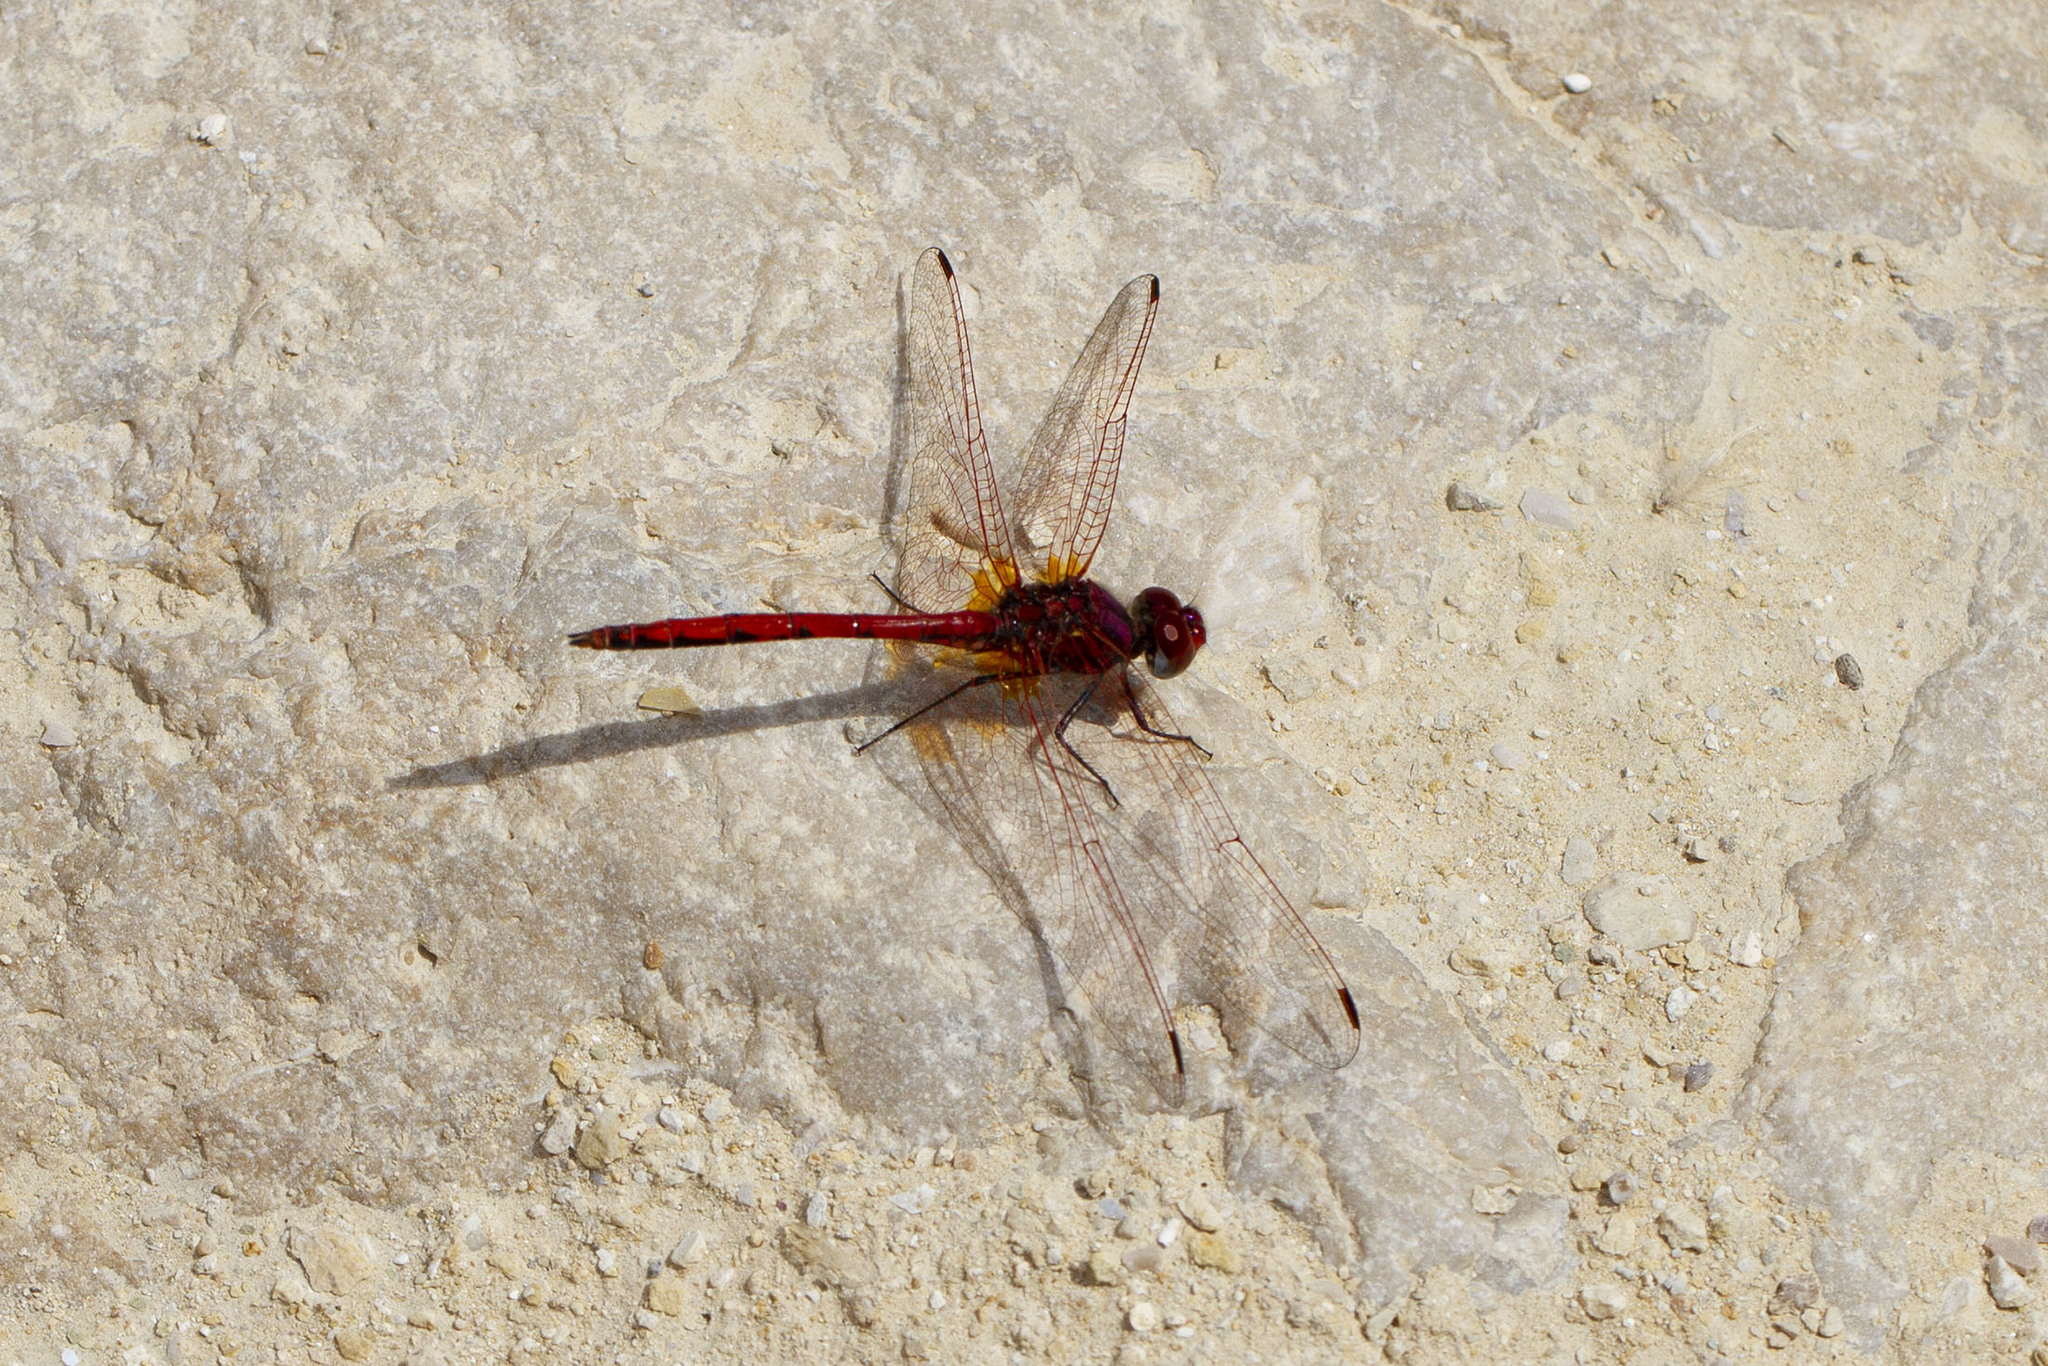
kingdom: Animalia
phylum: Arthropoda
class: Insecta
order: Odonata
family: Libellulidae
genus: Trithemis
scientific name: Trithemis arteriosa
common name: Red-veined dropwing
